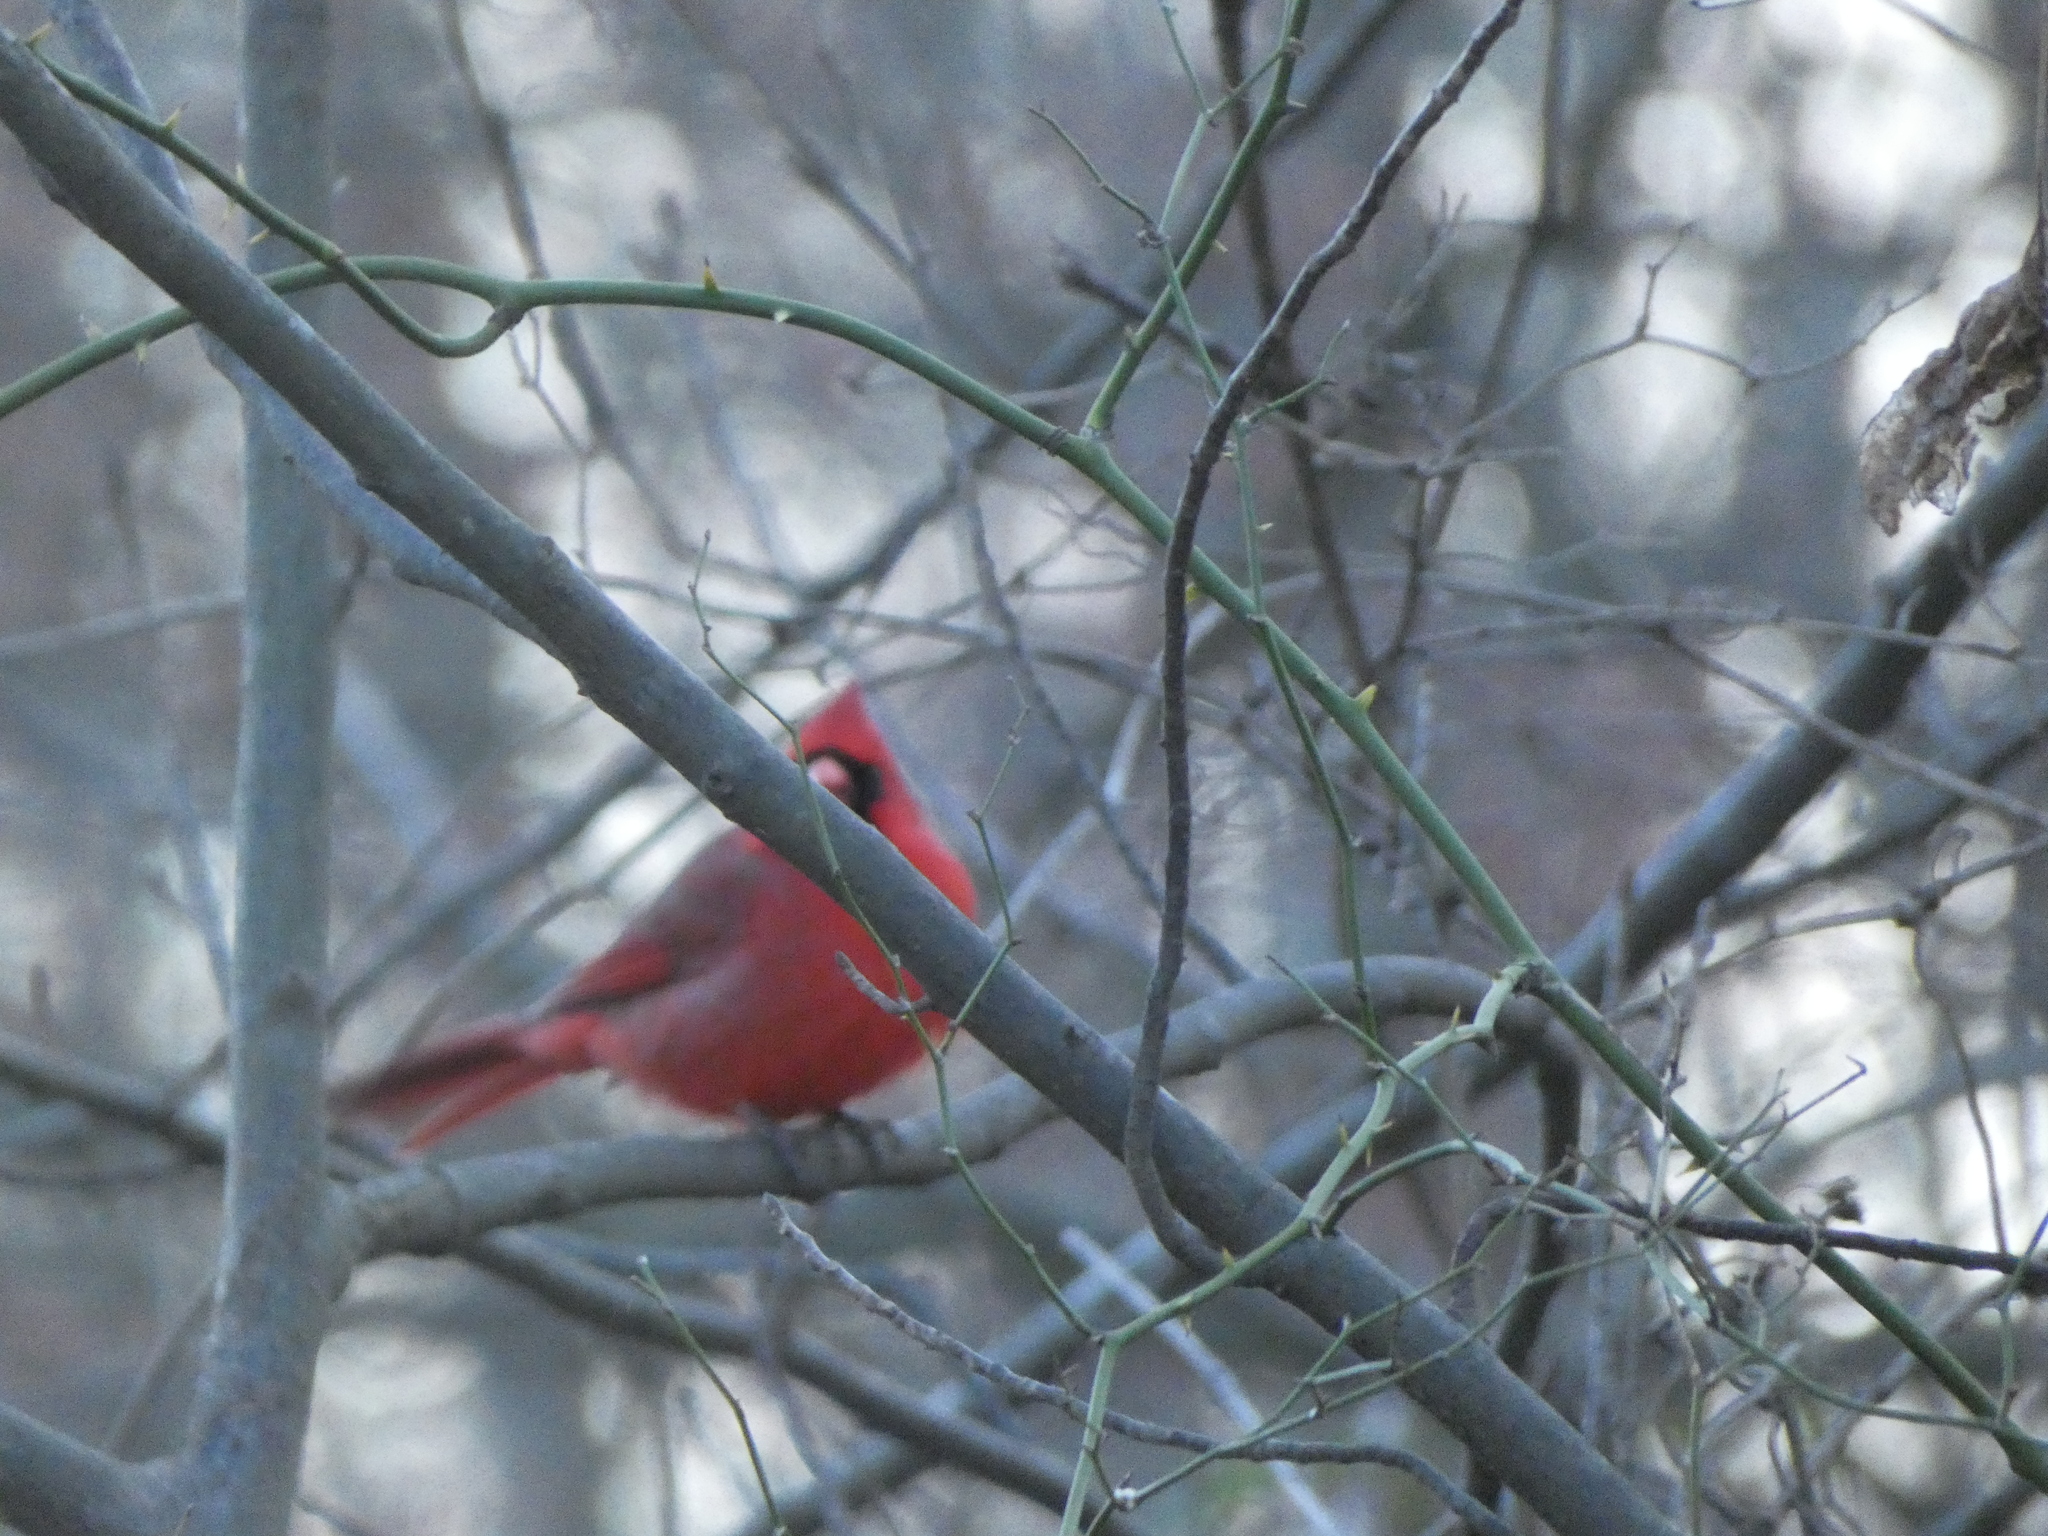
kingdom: Animalia
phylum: Chordata
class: Aves
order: Passeriformes
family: Cardinalidae
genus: Cardinalis
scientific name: Cardinalis cardinalis
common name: Northern cardinal
